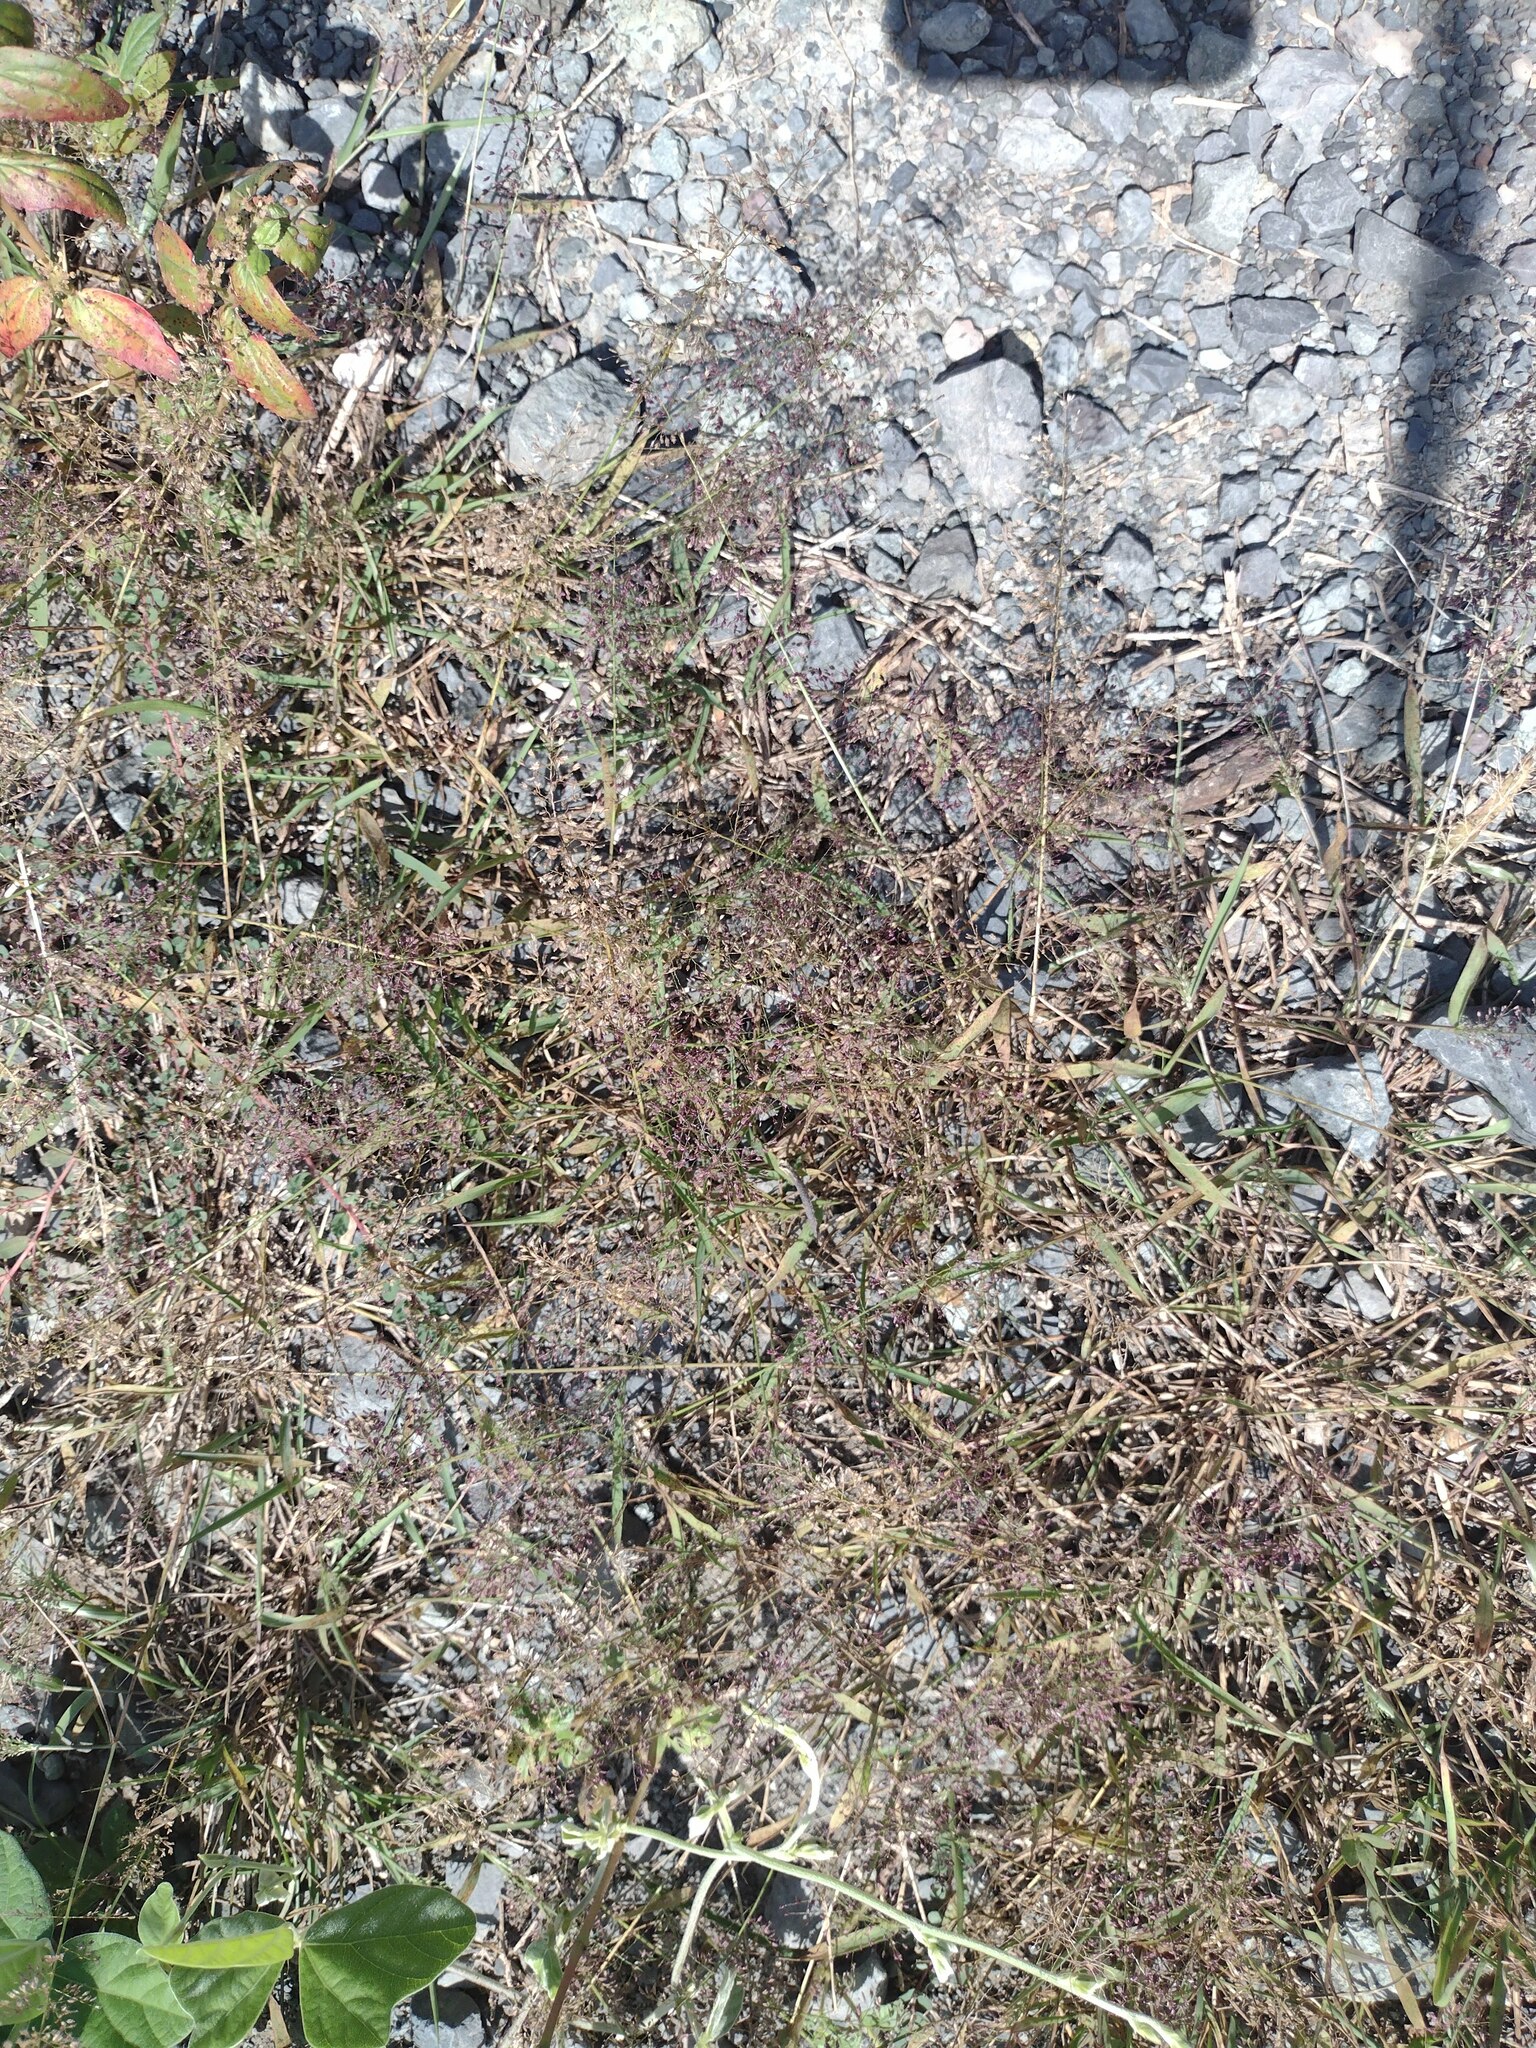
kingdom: Plantae
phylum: Tracheophyta
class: Liliopsida
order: Poales
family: Poaceae
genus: Eragrostis
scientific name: Eragrostis tenella
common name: Japanese lovegrass
